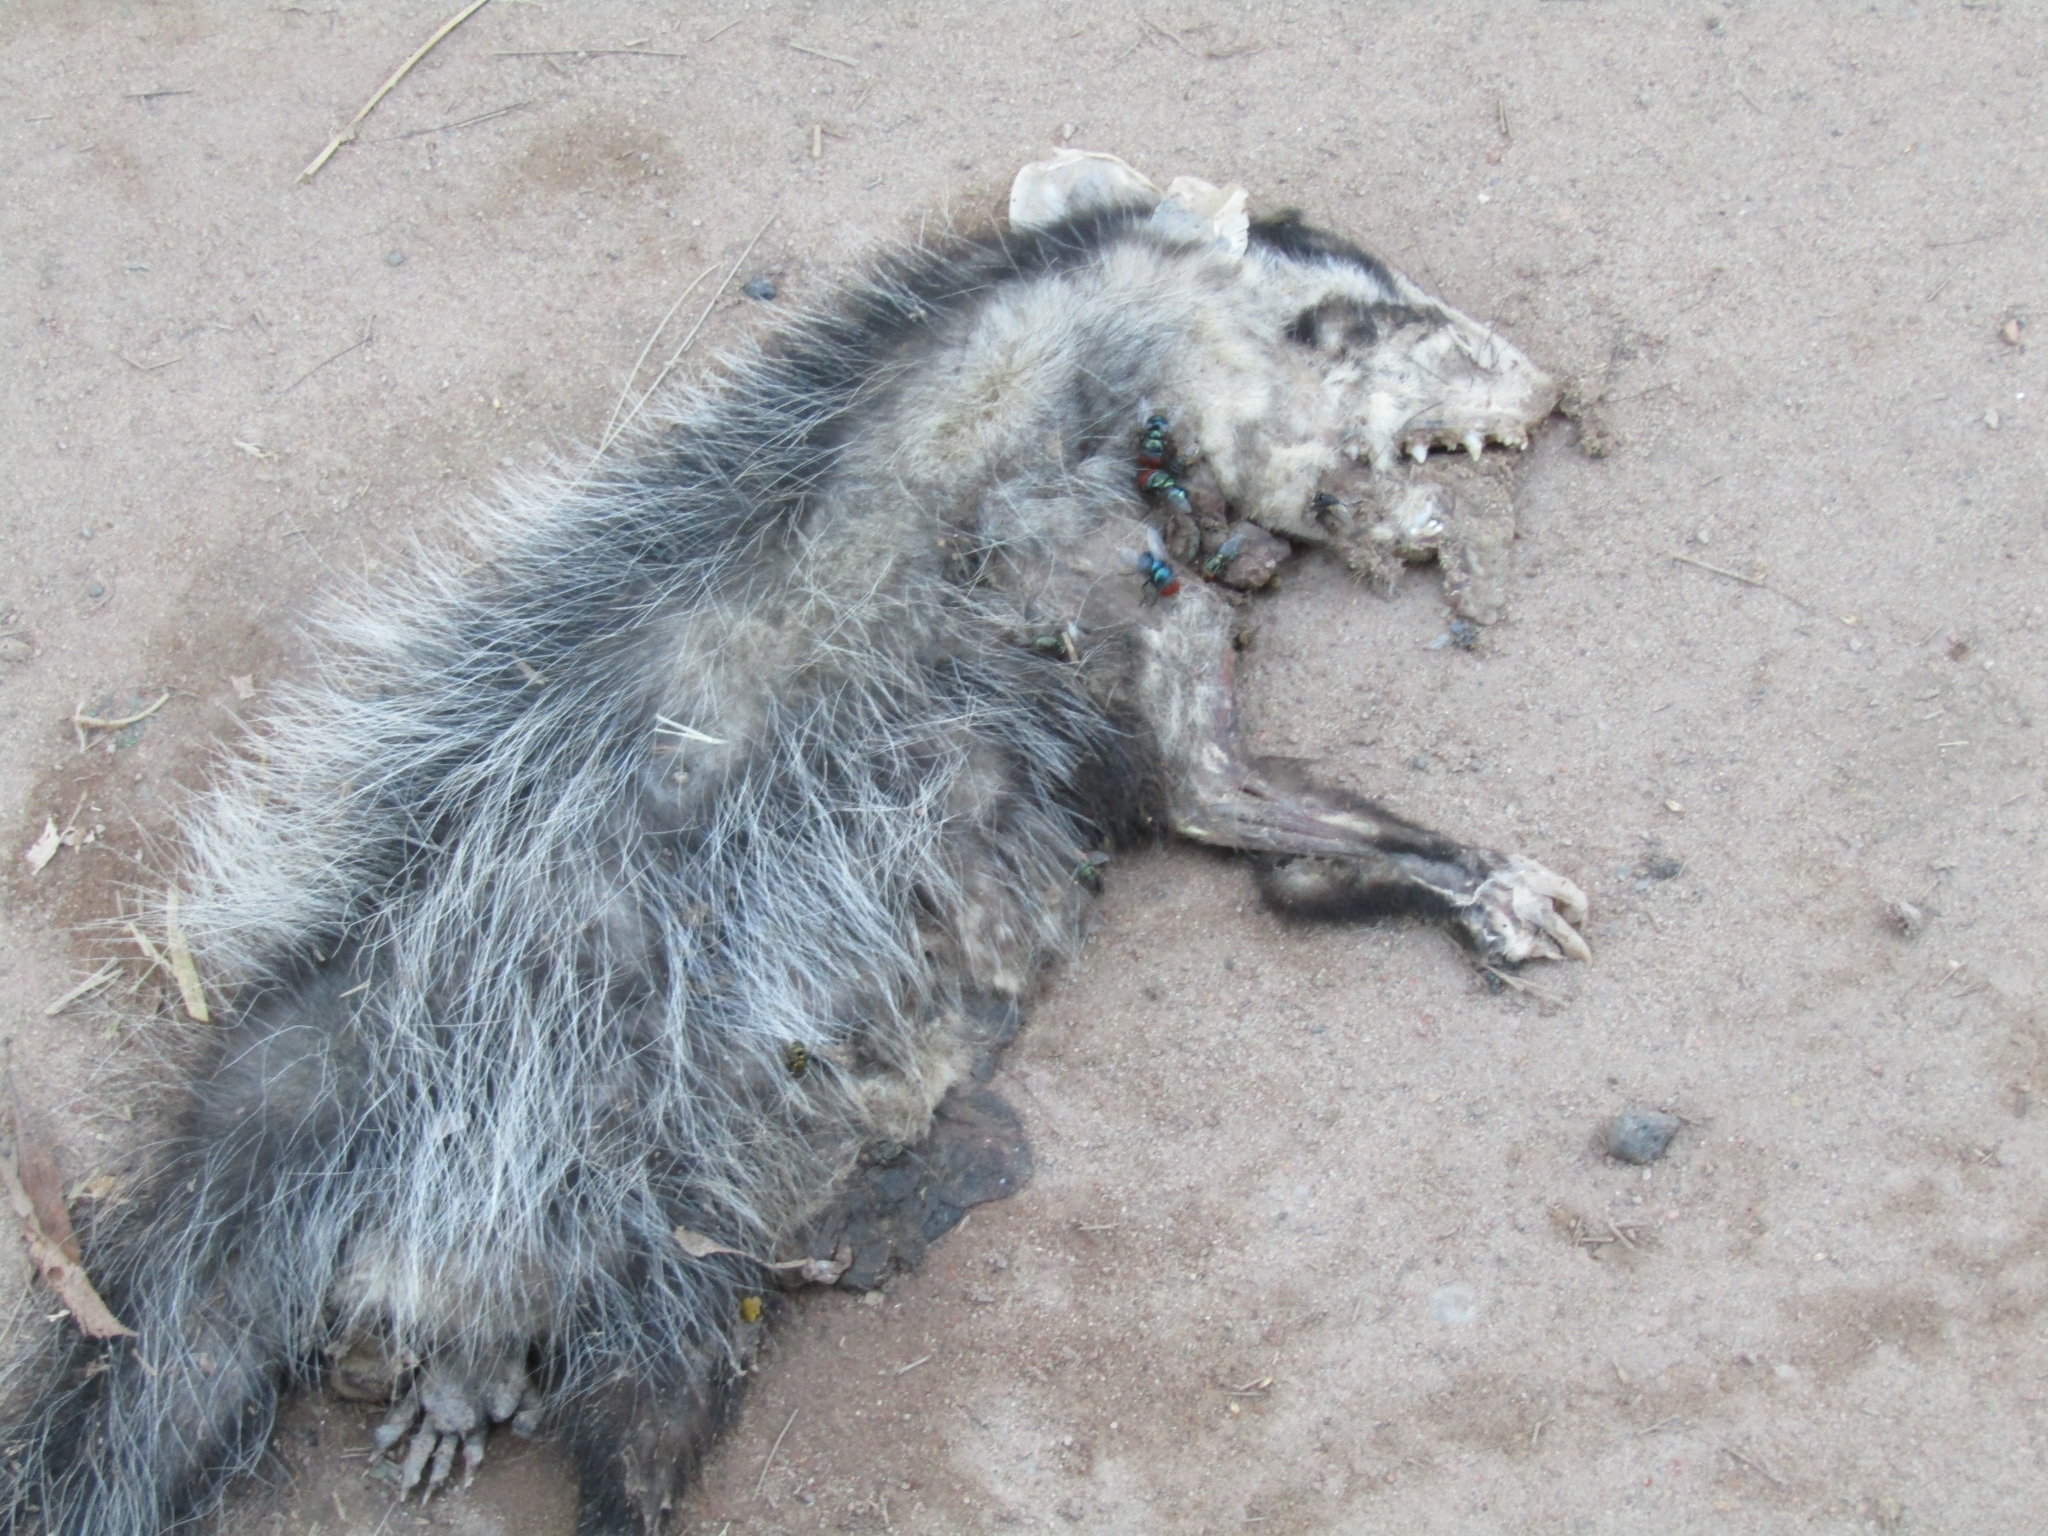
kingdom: Animalia
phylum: Chordata
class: Mammalia
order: Didelphimorphia
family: Didelphidae
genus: Didelphis
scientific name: Didelphis albiventris
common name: White-eared opossum
